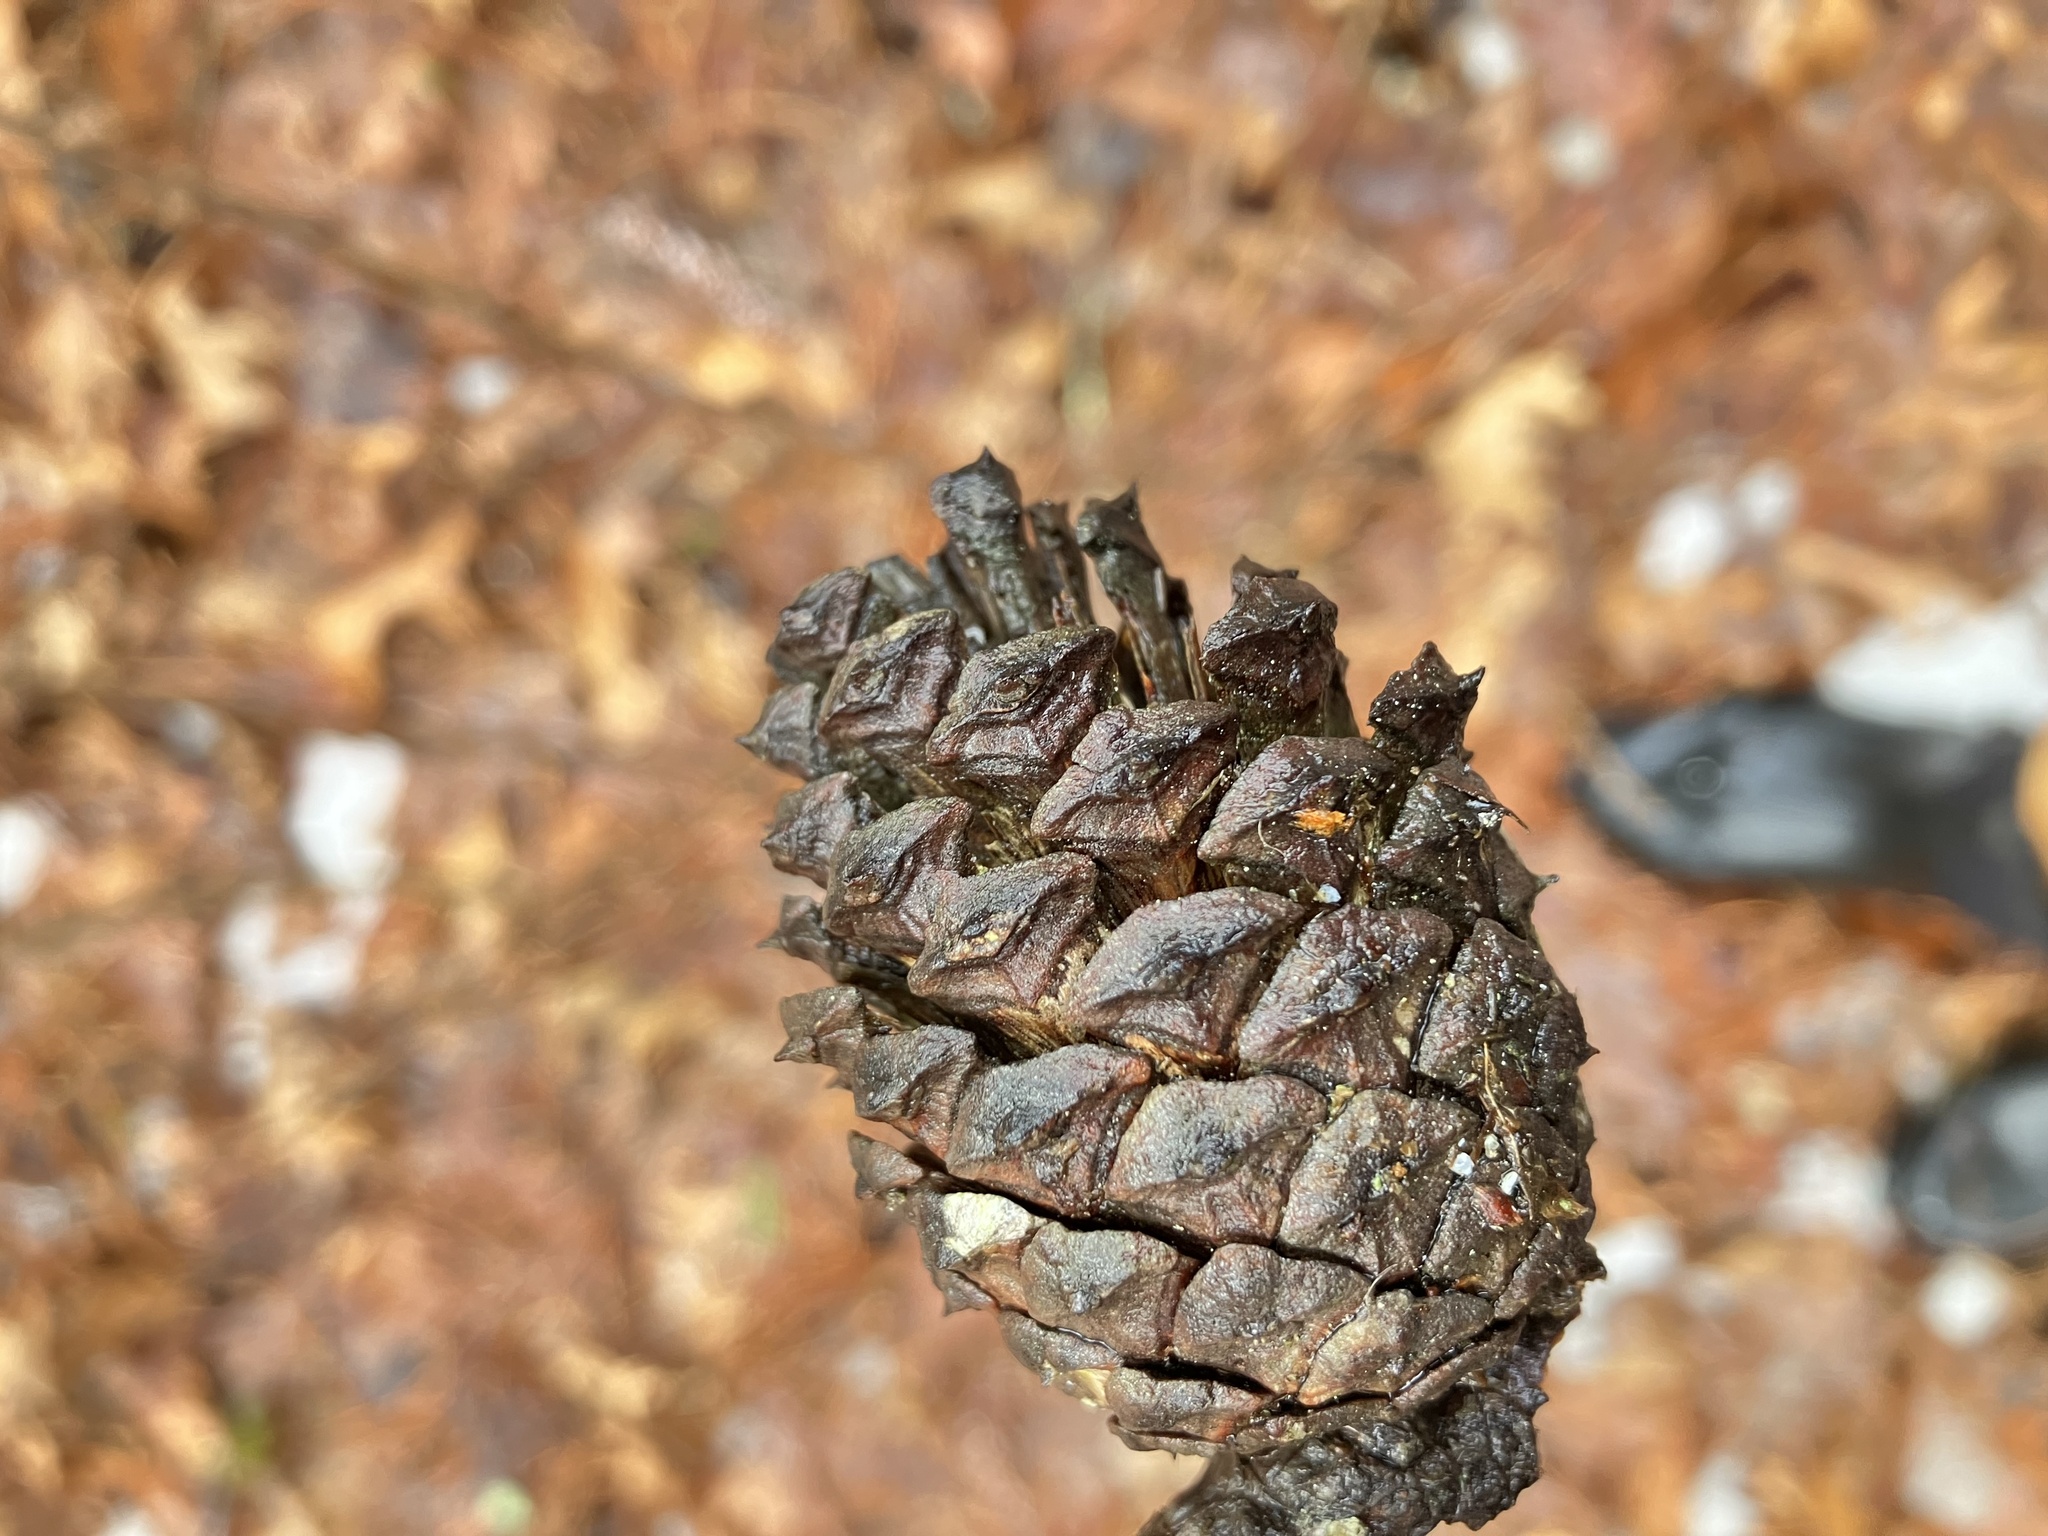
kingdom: Plantae
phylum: Tracheophyta
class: Pinopsida
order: Pinales
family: Pinaceae
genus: Pinus
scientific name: Pinus rigida
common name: Pitch pine
